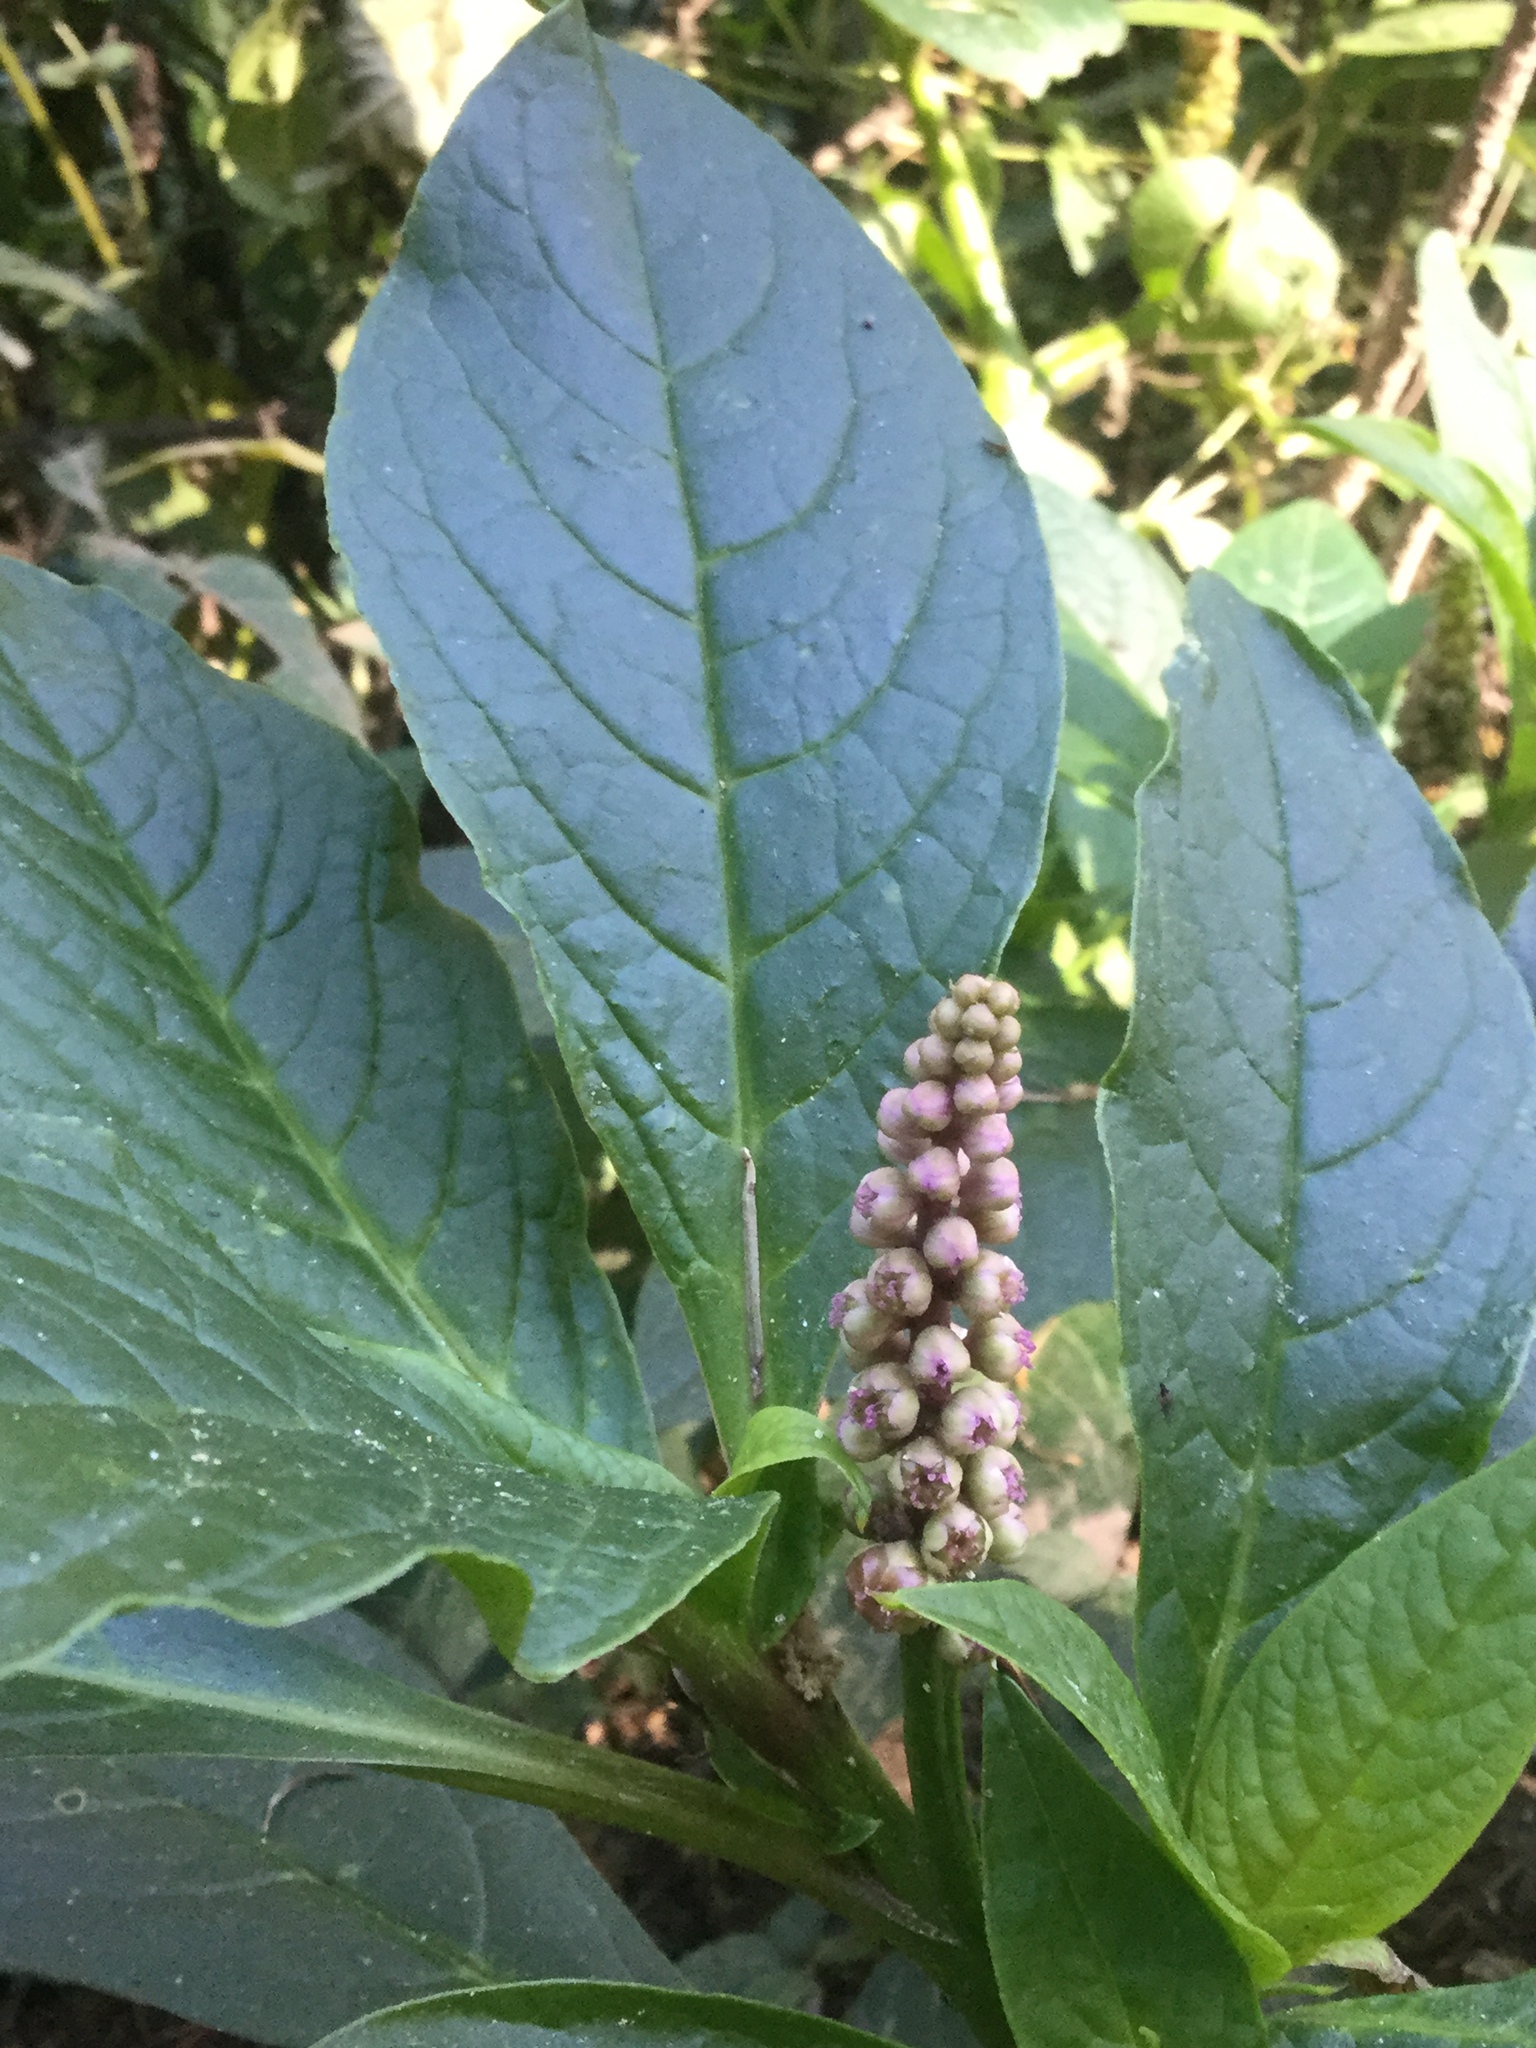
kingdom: Plantae
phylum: Tracheophyta
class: Magnoliopsida
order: Caryophyllales
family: Phytolaccaceae
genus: Phytolacca
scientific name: Phytolacca icosandra
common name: Button pokeweed
